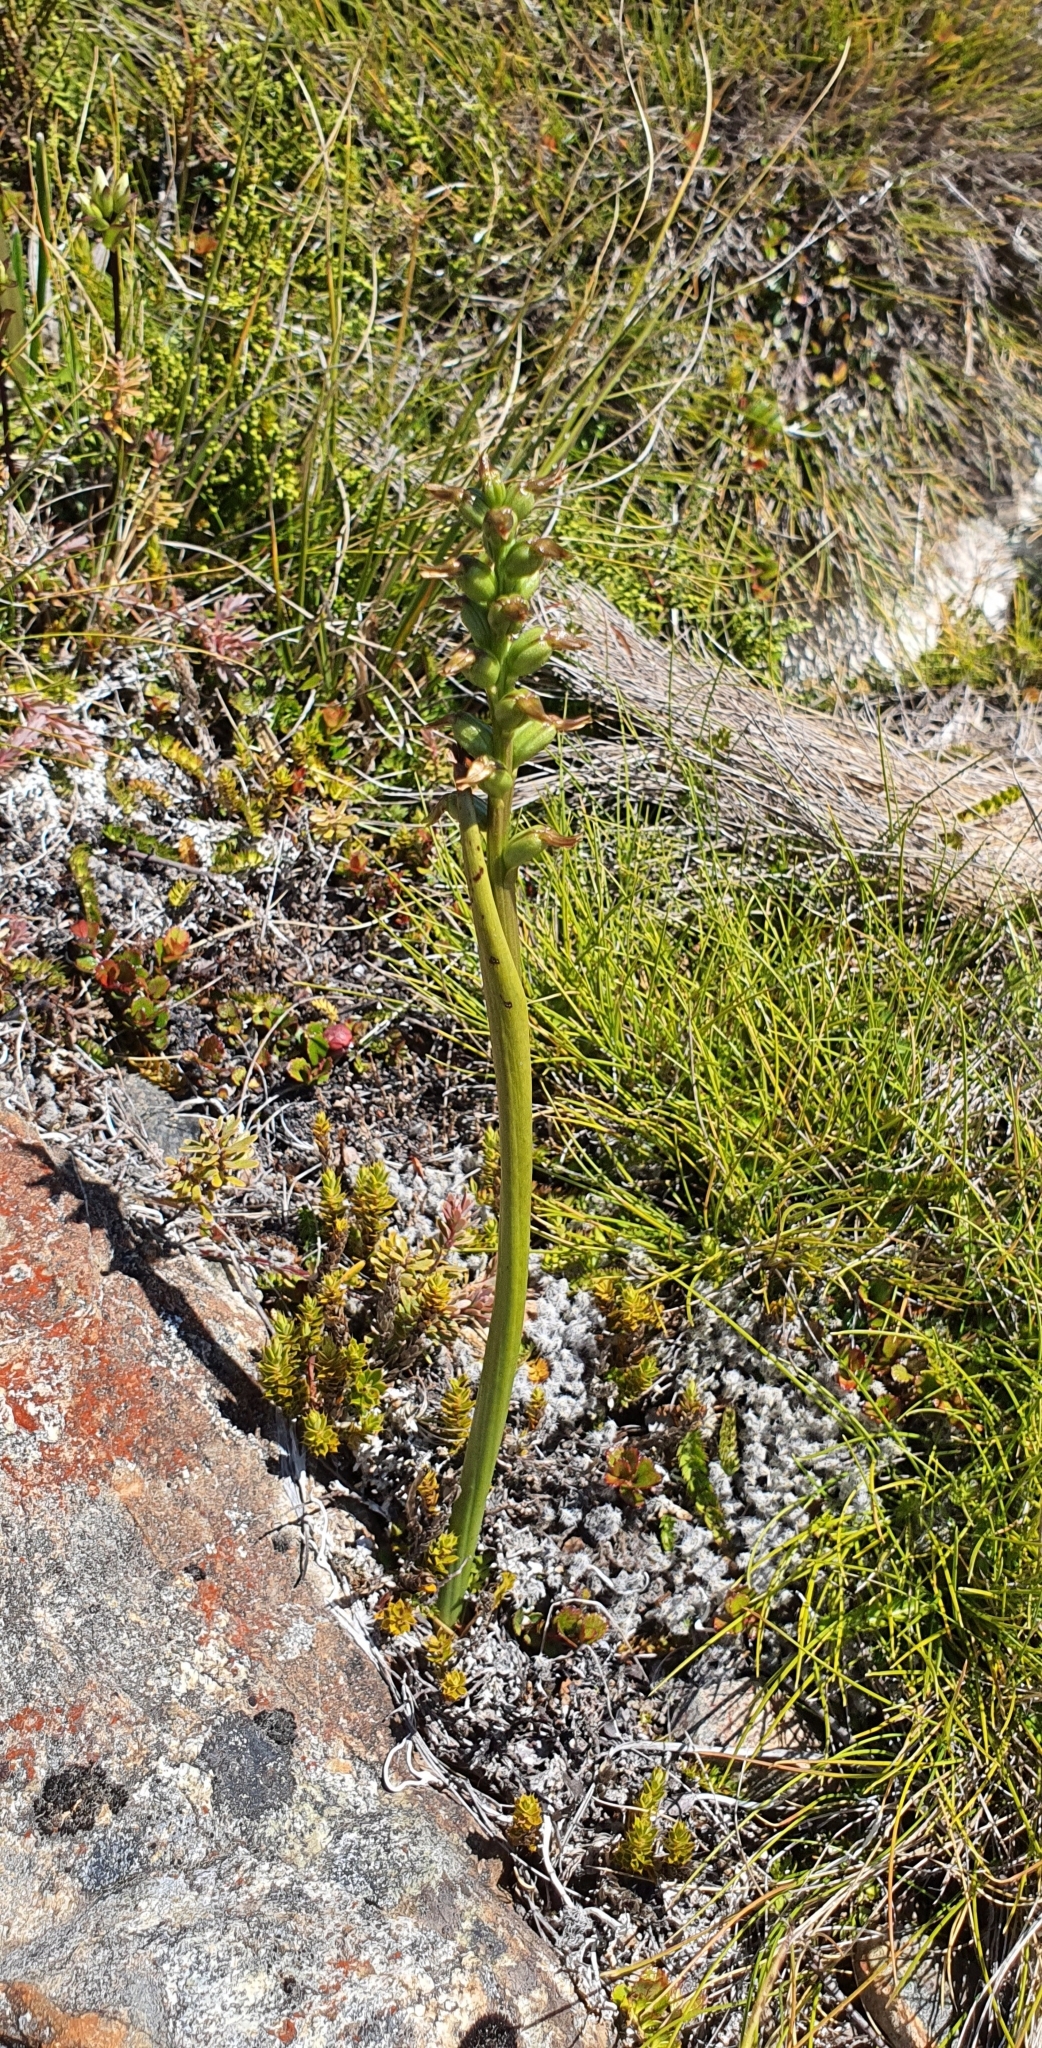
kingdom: Plantae
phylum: Tracheophyta
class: Liliopsida
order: Asparagales
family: Orchidaceae
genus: Prasophyllum
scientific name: Prasophyllum colensoi
